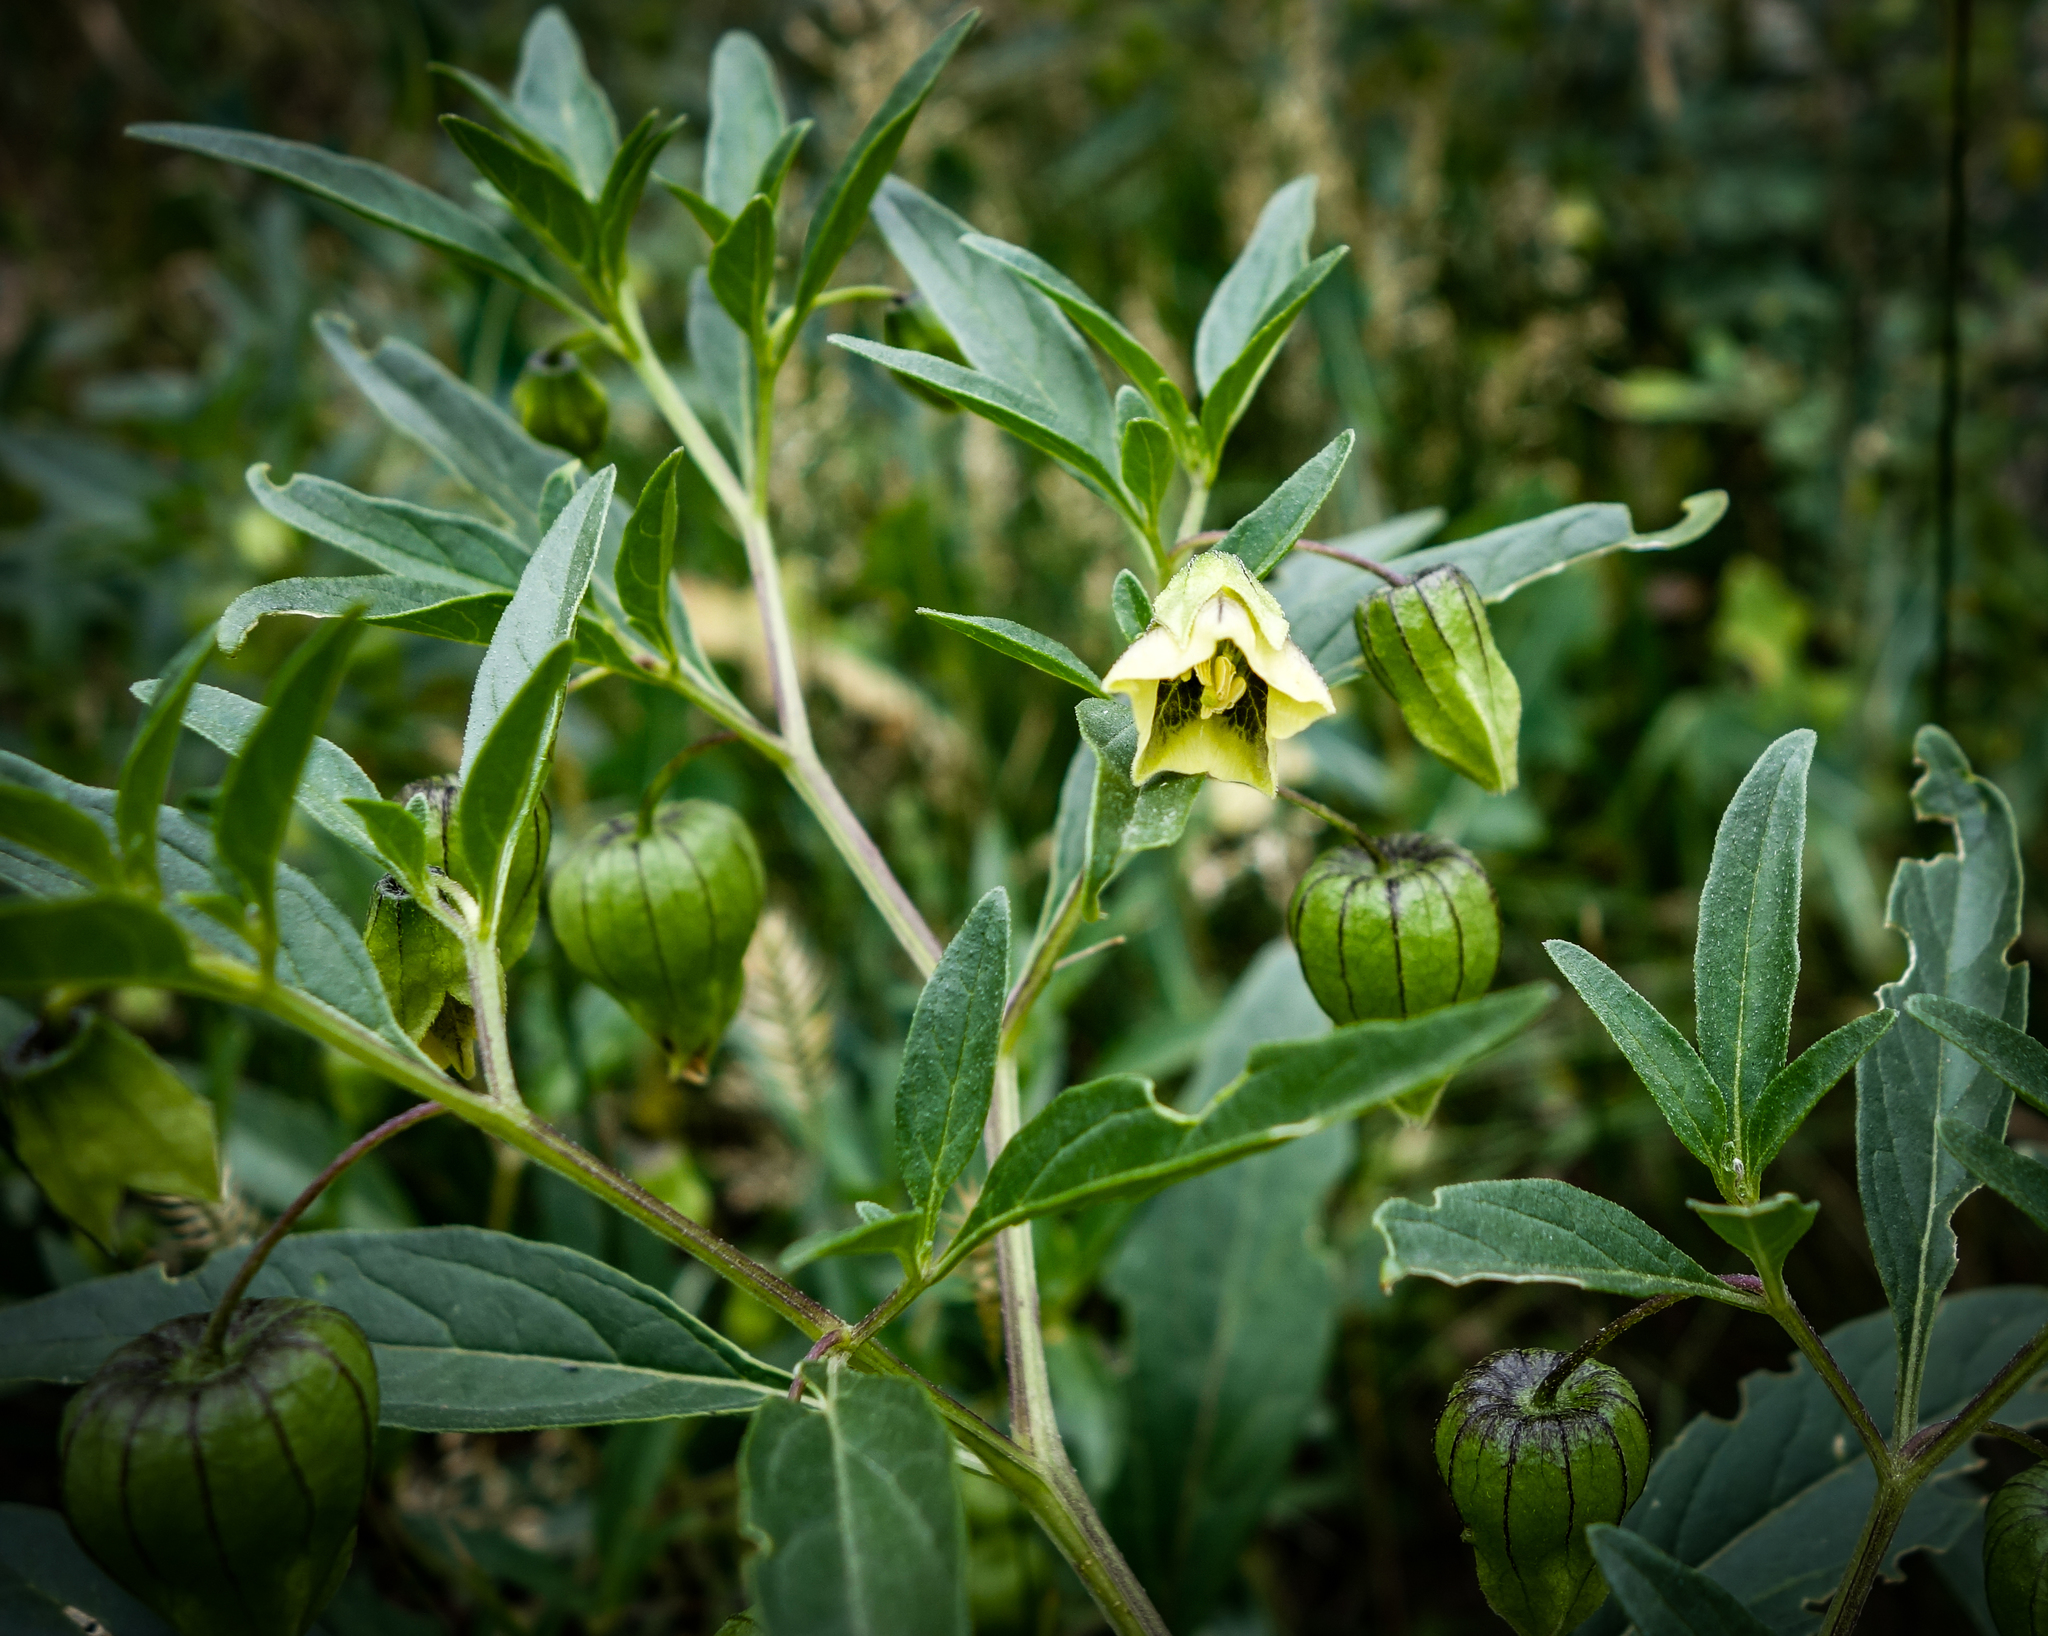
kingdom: Plantae
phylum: Tracheophyta
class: Magnoliopsida
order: Solanales
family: Solanaceae
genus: Physalis
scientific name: Physalis longifolia
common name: Common ground-cherry
